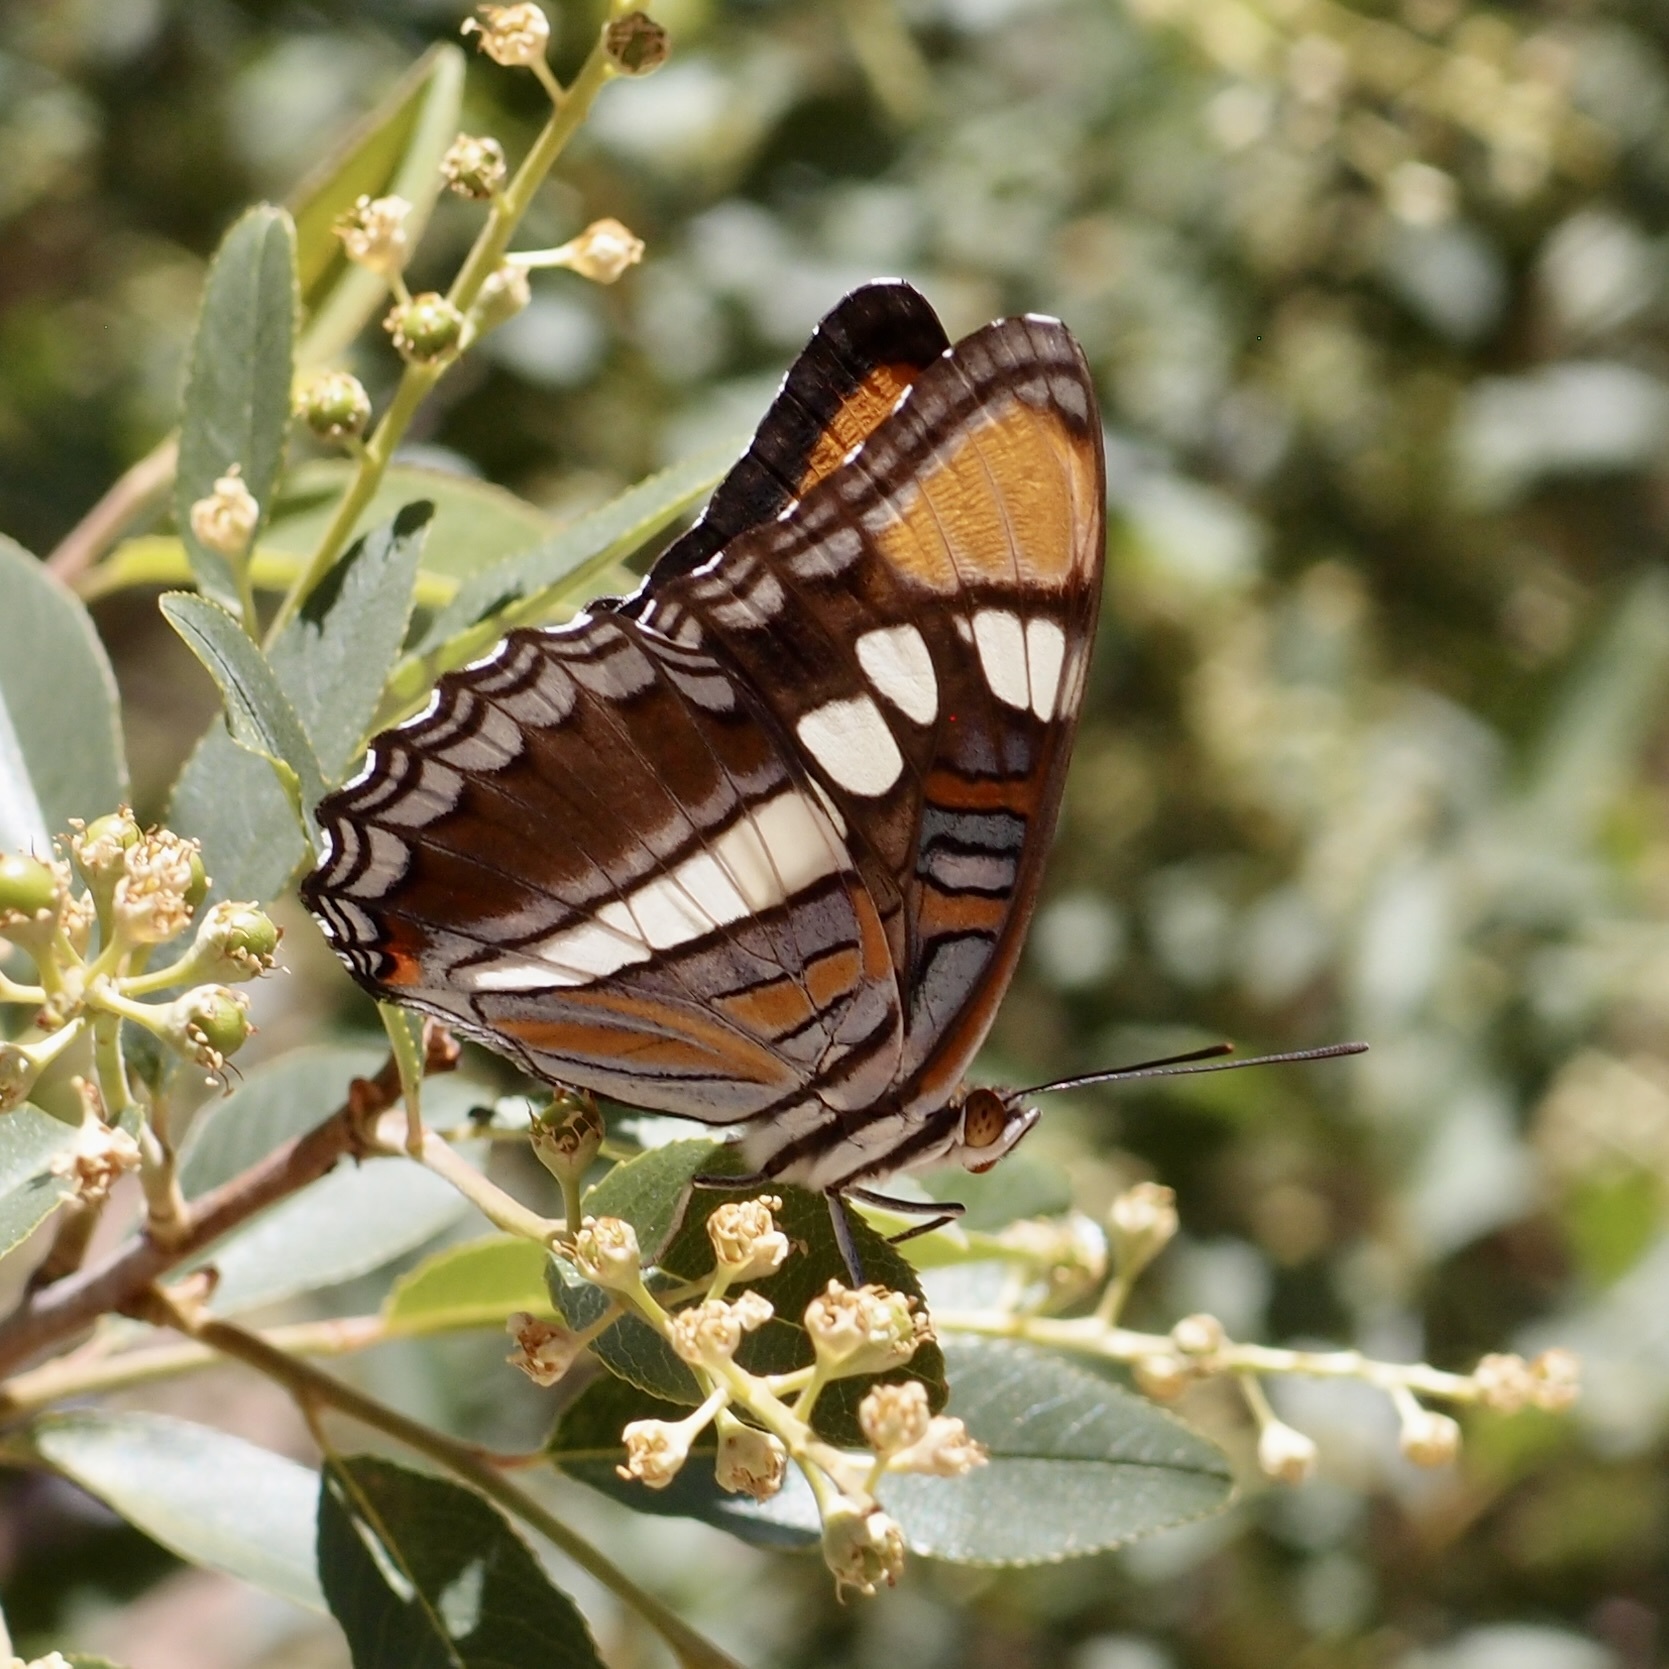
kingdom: Animalia
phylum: Arthropoda
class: Insecta
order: Lepidoptera
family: Nymphalidae
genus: Limenitis
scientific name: Limenitis bredowii
